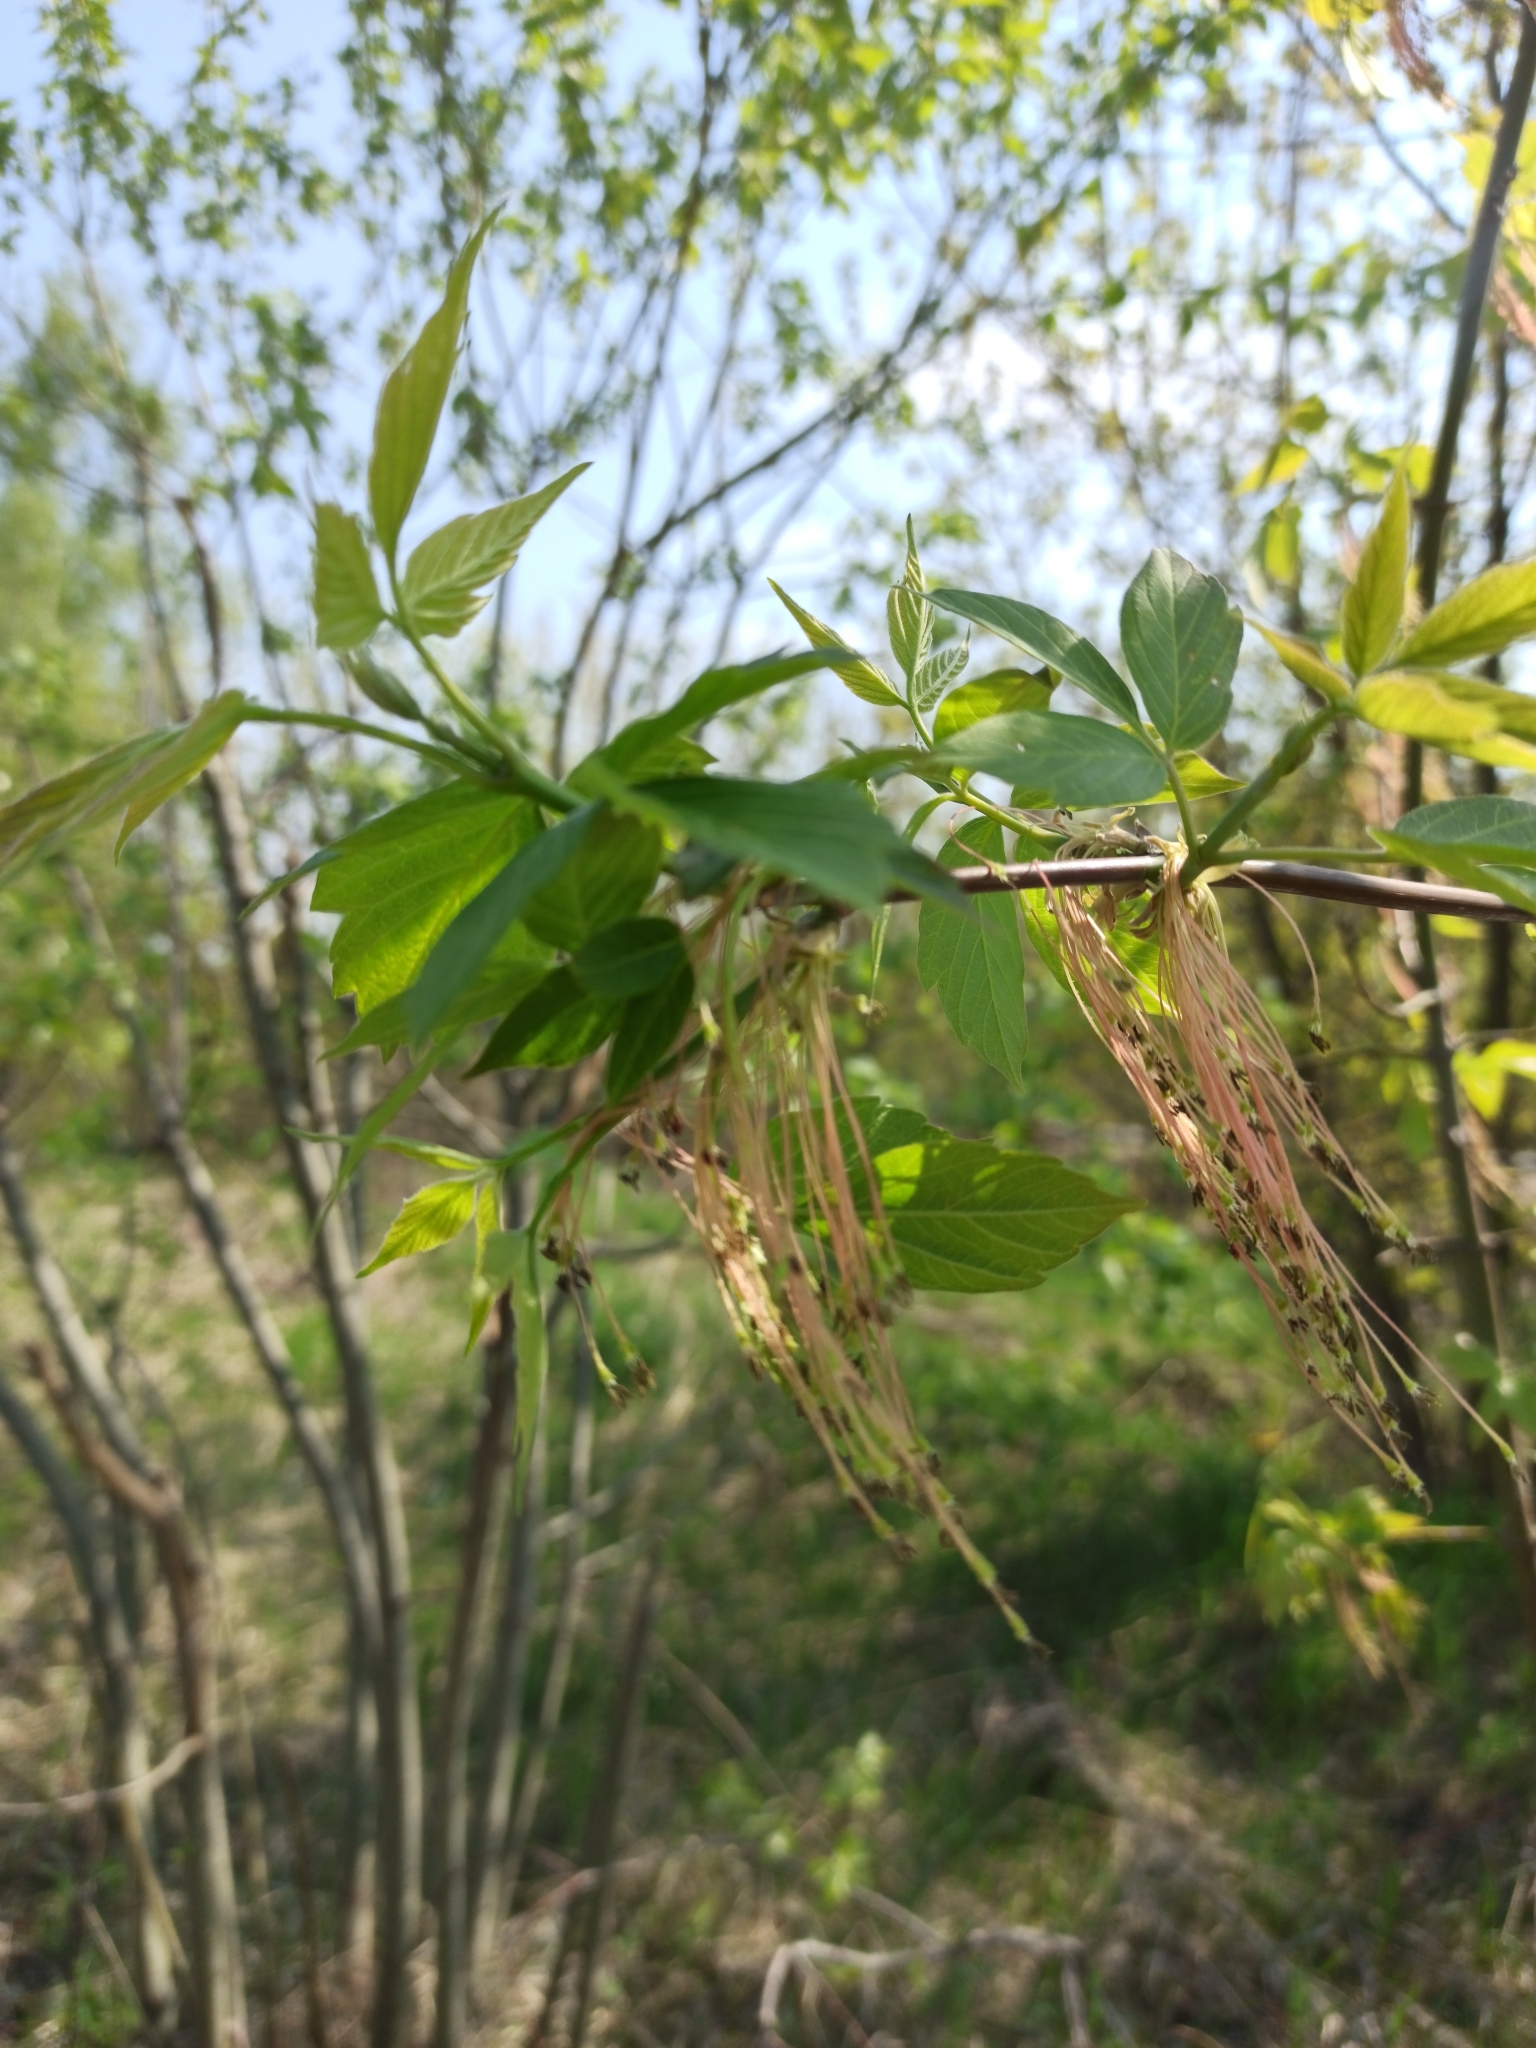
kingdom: Plantae
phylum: Tracheophyta
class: Magnoliopsida
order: Sapindales
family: Sapindaceae
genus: Acer
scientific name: Acer negundo
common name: Ashleaf maple
